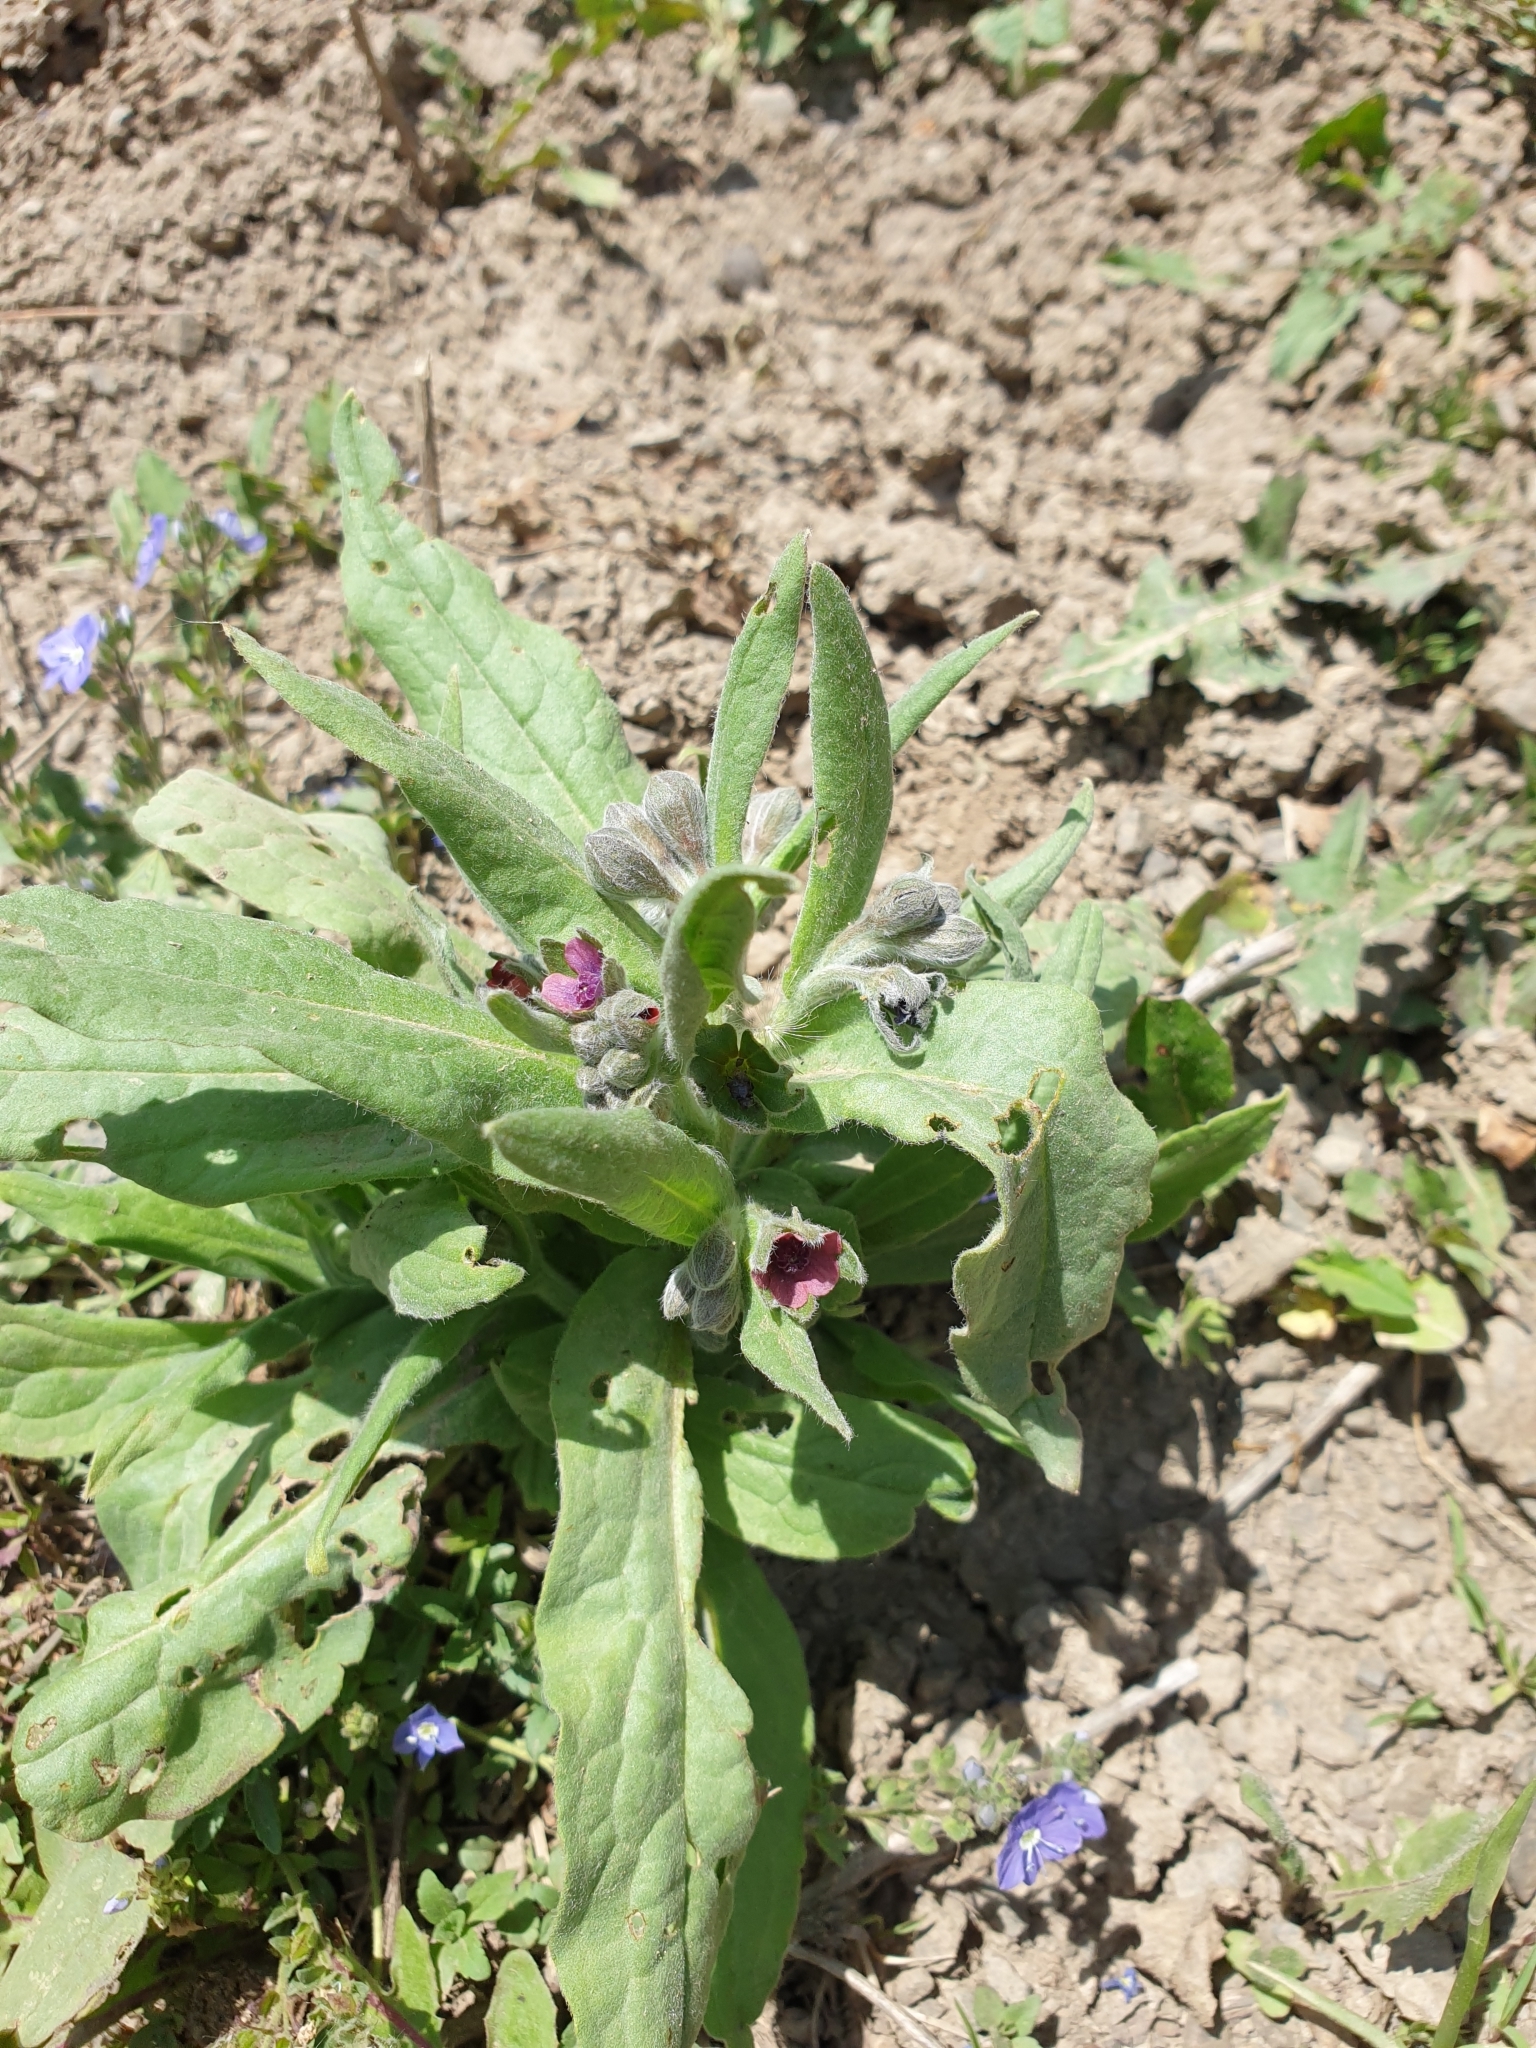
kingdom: Plantae
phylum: Tracheophyta
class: Magnoliopsida
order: Boraginales
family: Boraginaceae
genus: Cynoglossum
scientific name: Cynoglossum officinale
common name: Hound's-tongue
